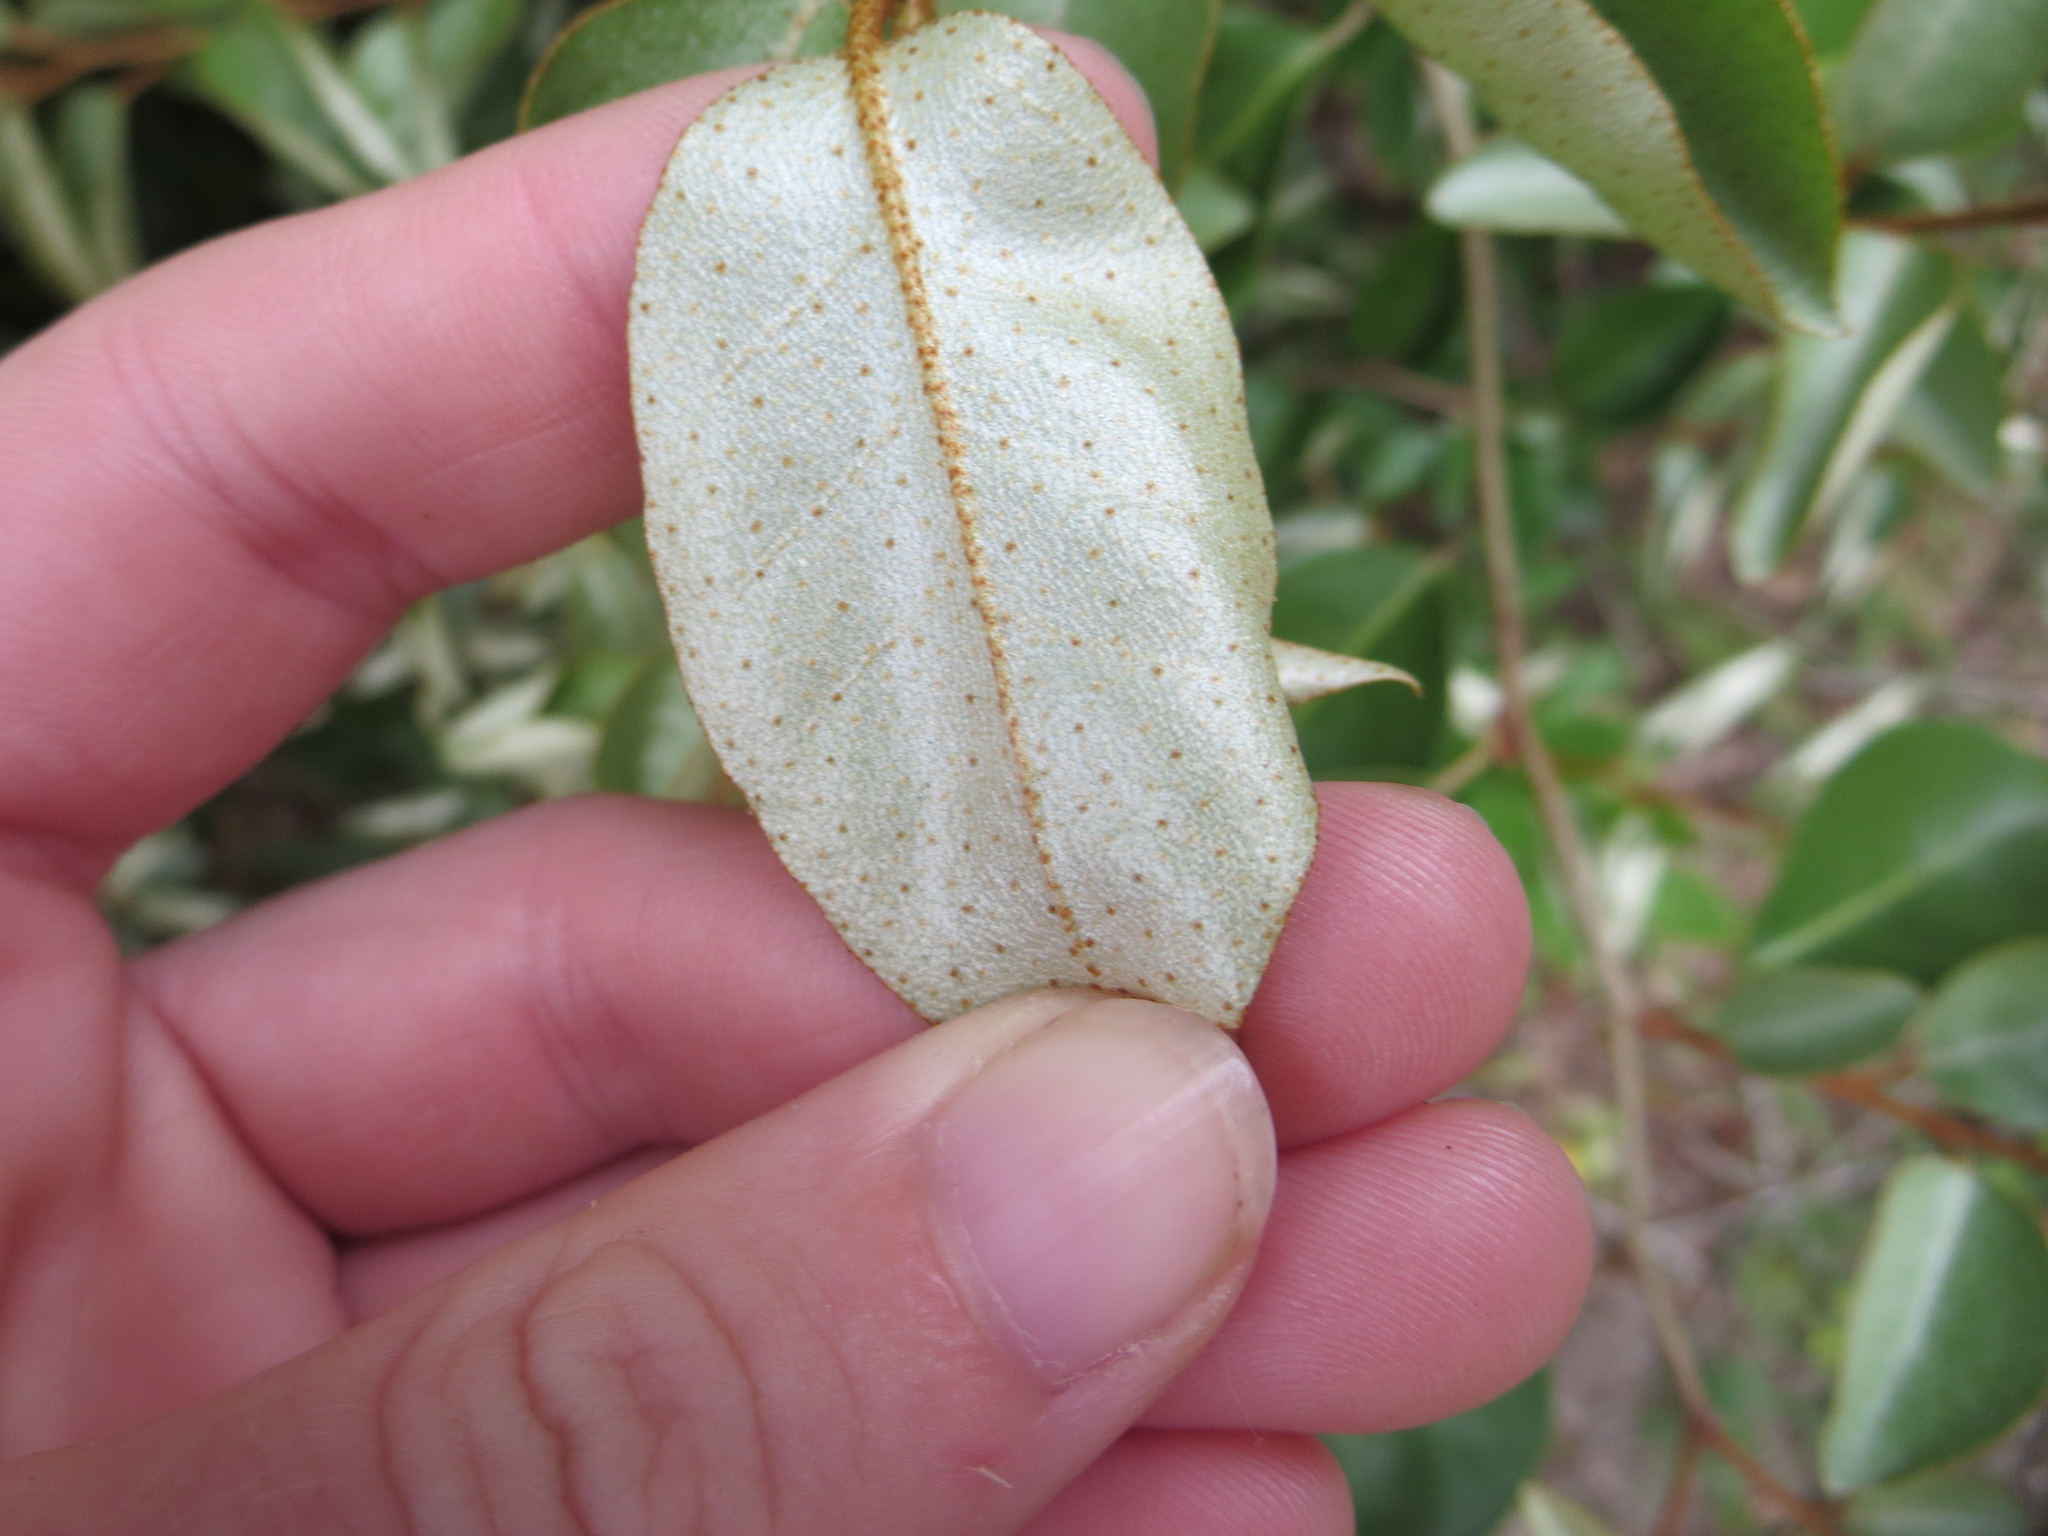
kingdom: Plantae
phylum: Tracheophyta
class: Magnoliopsida
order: Rosales
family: Elaeagnaceae
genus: Elaeagnus
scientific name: Elaeagnus pungens
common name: Spiny oleaster
